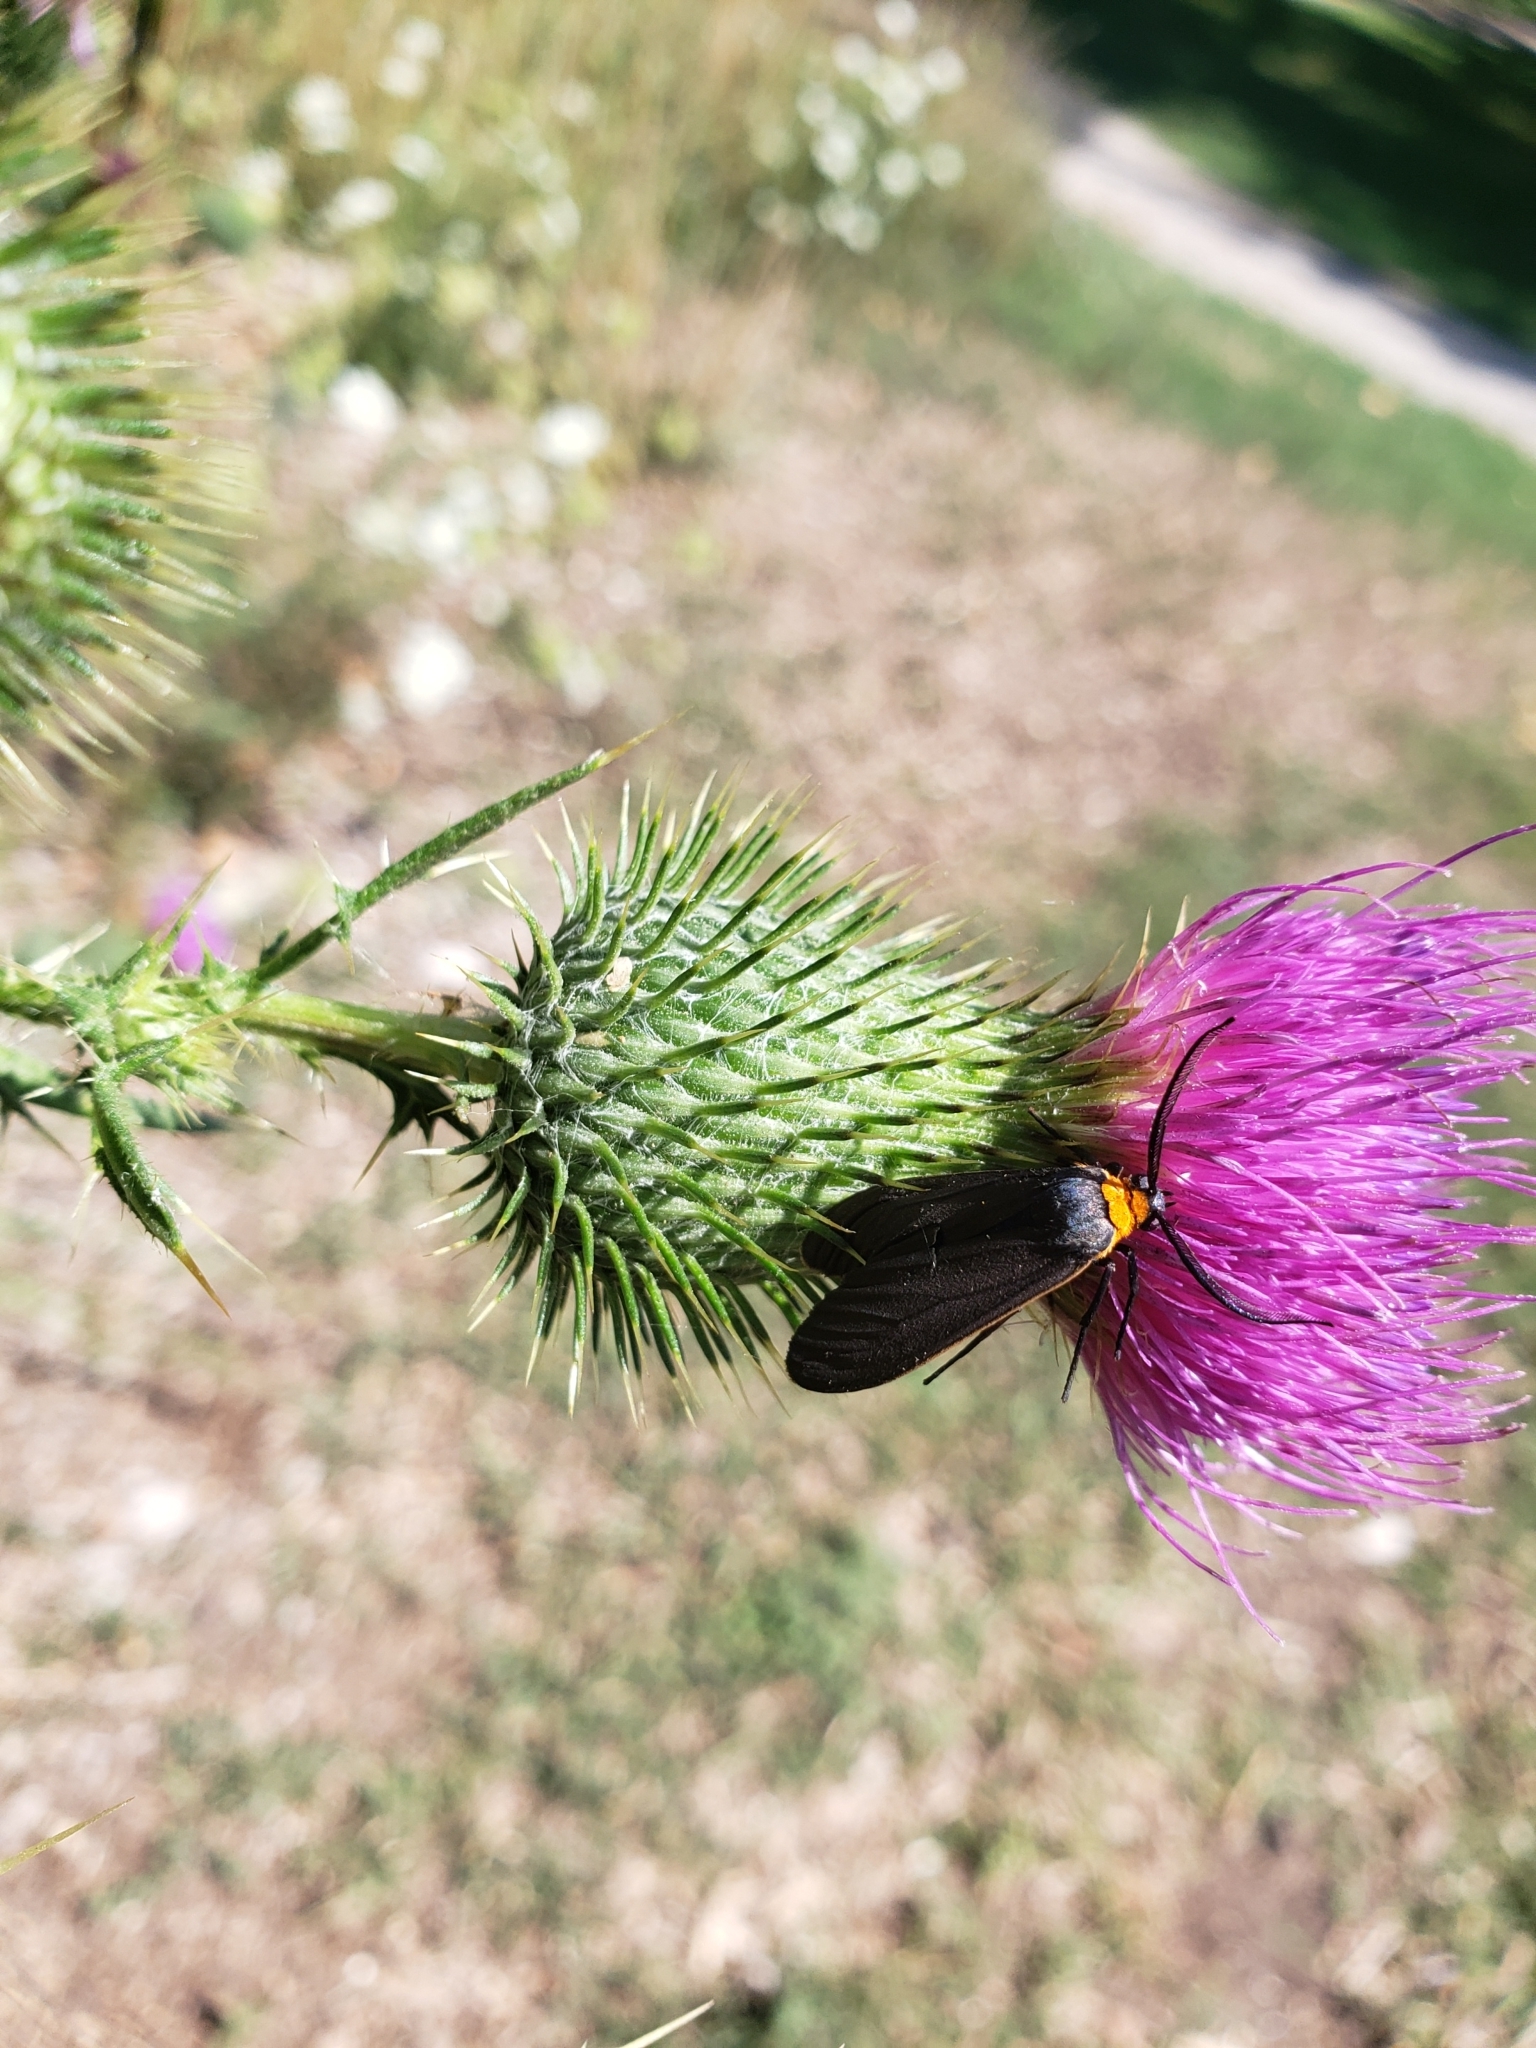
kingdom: Animalia
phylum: Arthropoda
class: Insecta
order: Lepidoptera
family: Erebidae
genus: Cisseps
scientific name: Cisseps fulvicollis
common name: Yellow-collared scape moth
